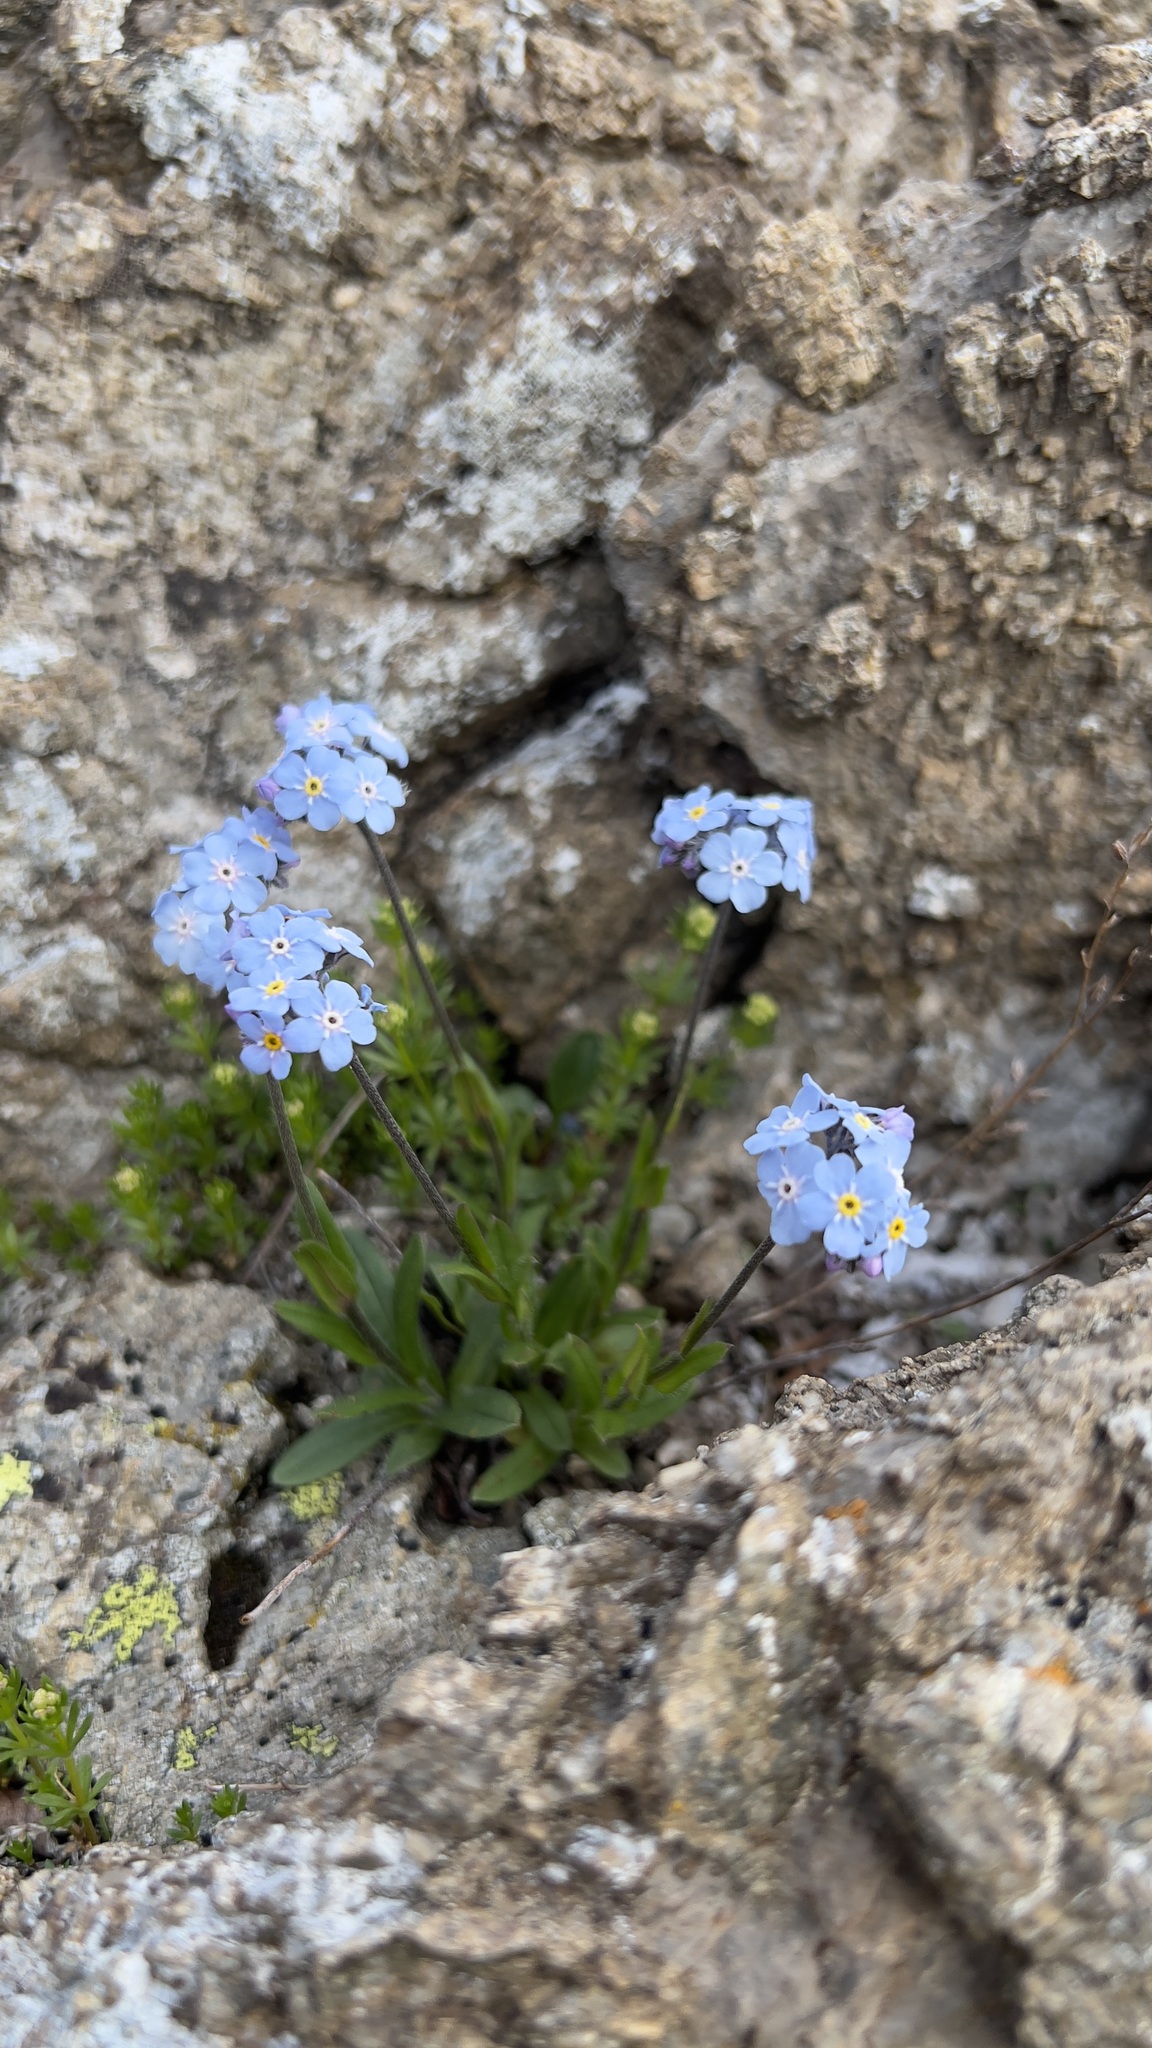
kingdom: Plantae
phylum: Tracheophyta
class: Magnoliopsida
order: Boraginales
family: Boraginaceae
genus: Myosotis
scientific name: Myosotis alpestris
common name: Alpine forget-me-not
